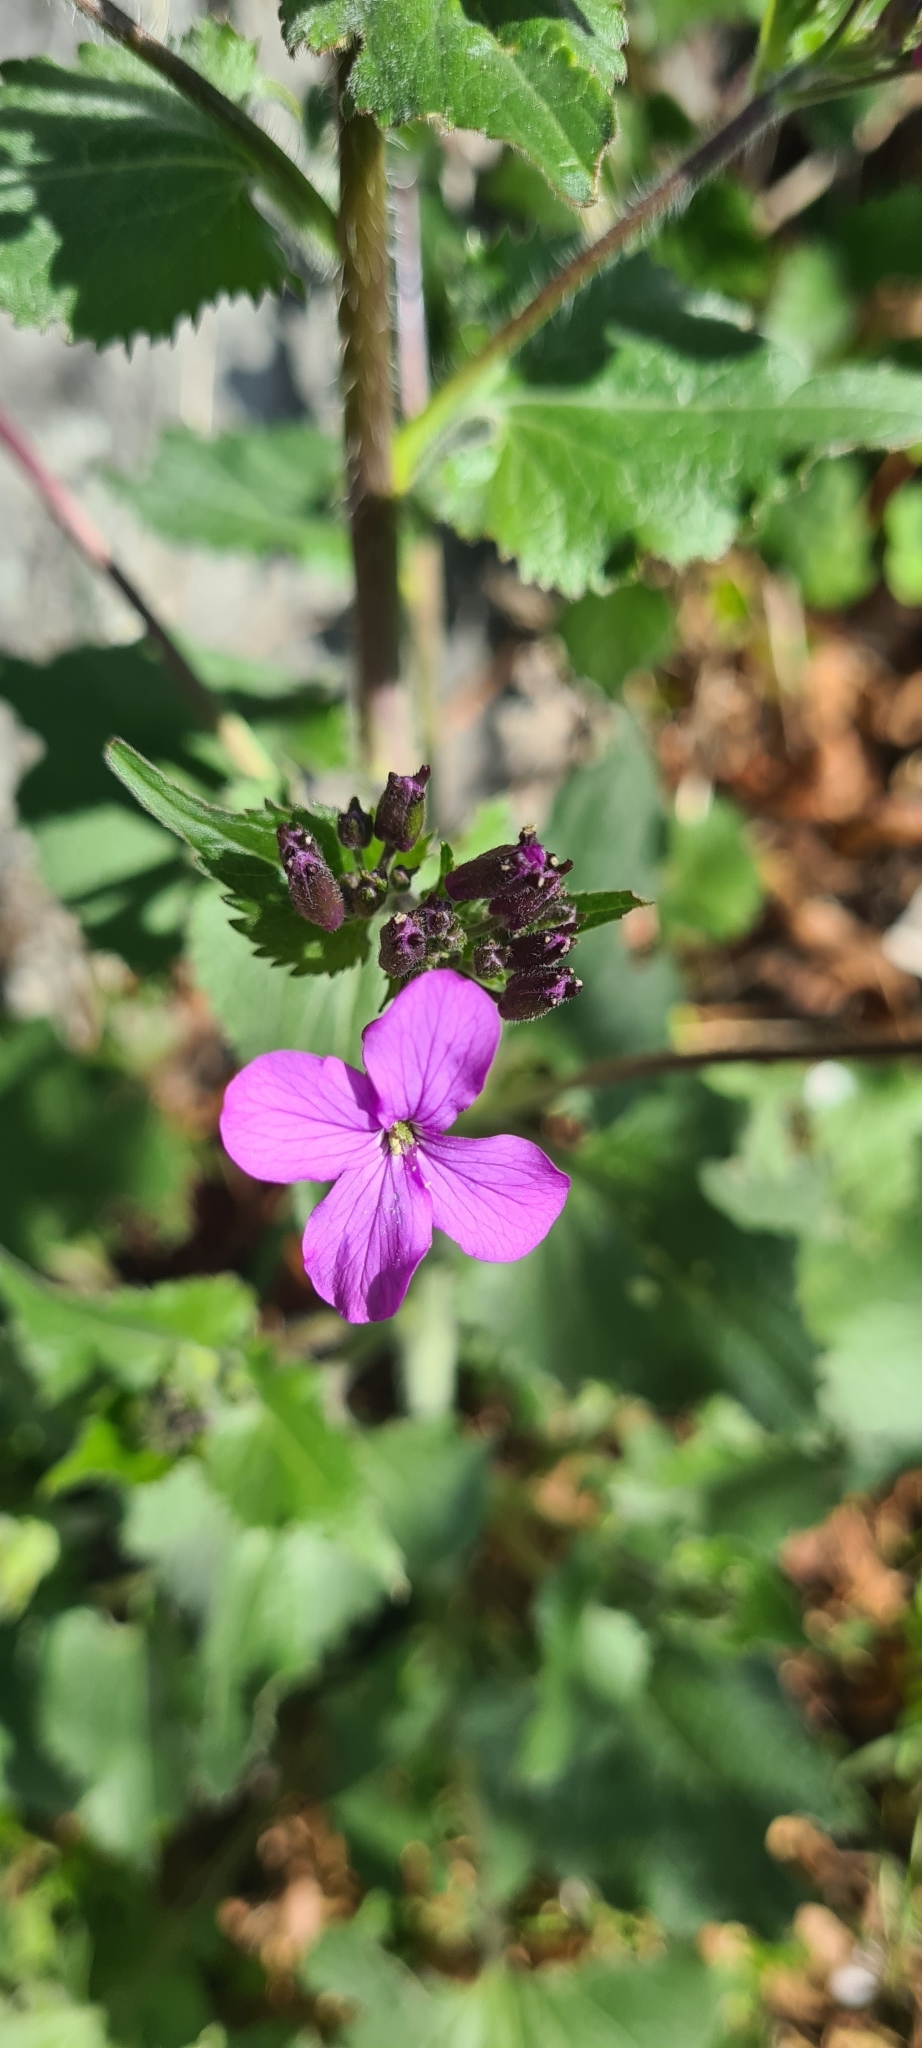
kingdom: Plantae
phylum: Tracheophyta
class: Magnoliopsida
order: Brassicales
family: Brassicaceae
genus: Lunaria
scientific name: Lunaria annua
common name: Honesty
